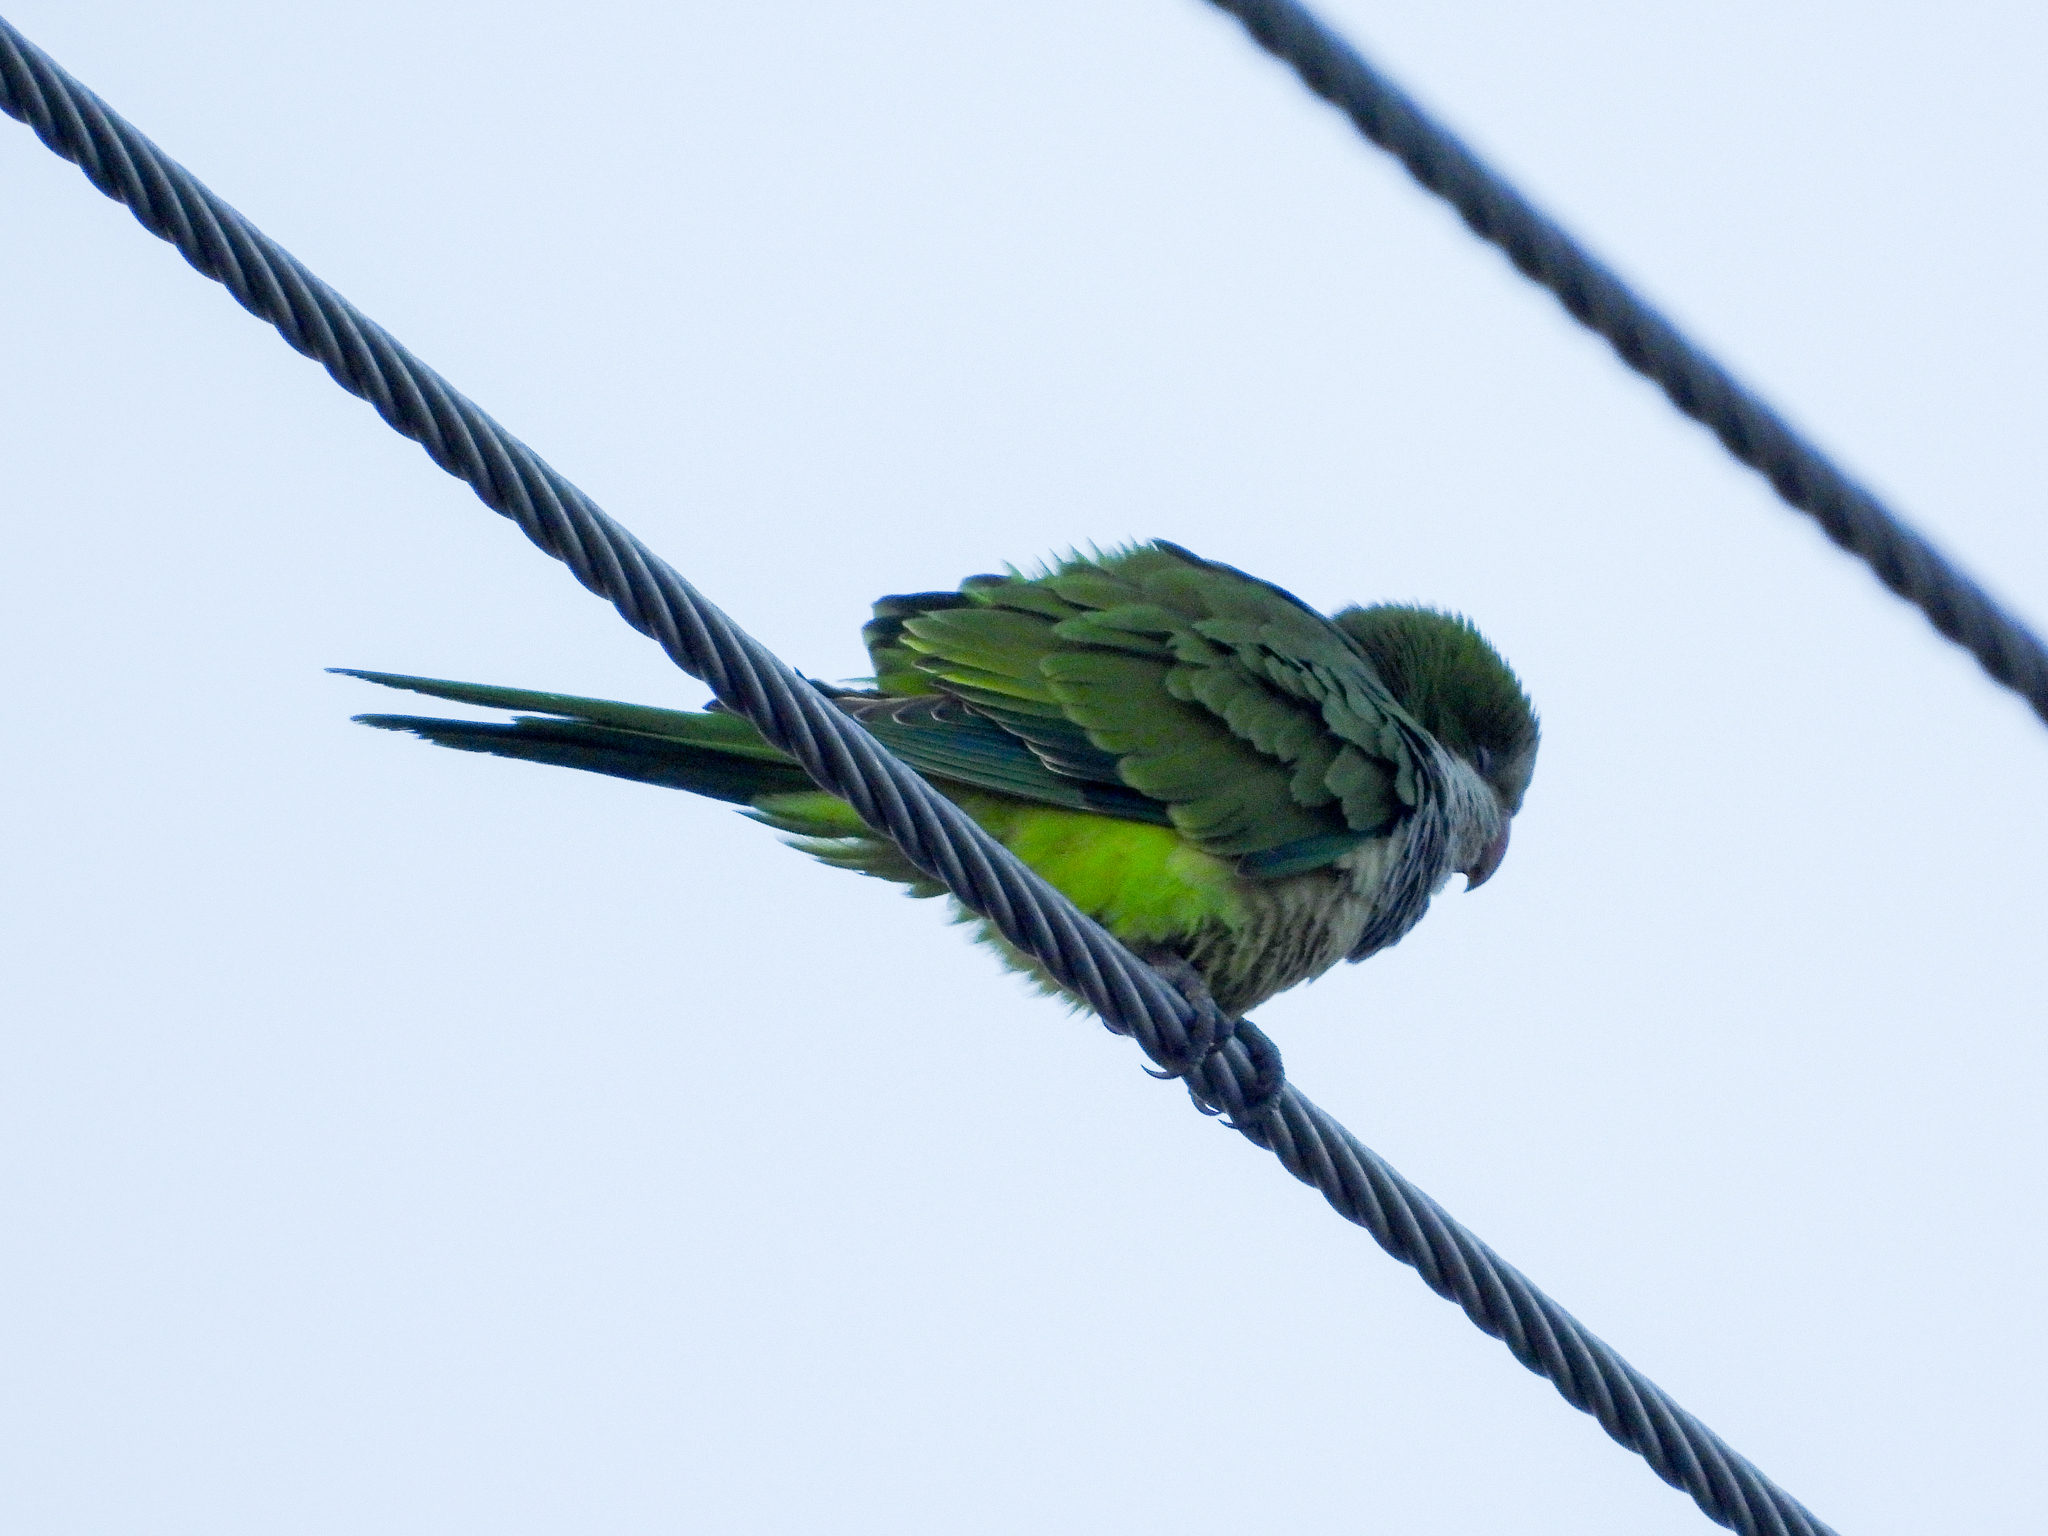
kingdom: Animalia
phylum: Chordata
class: Aves
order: Psittaciformes
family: Psittacidae
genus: Myiopsitta
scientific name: Myiopsitta monachus
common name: Monk parakeet
